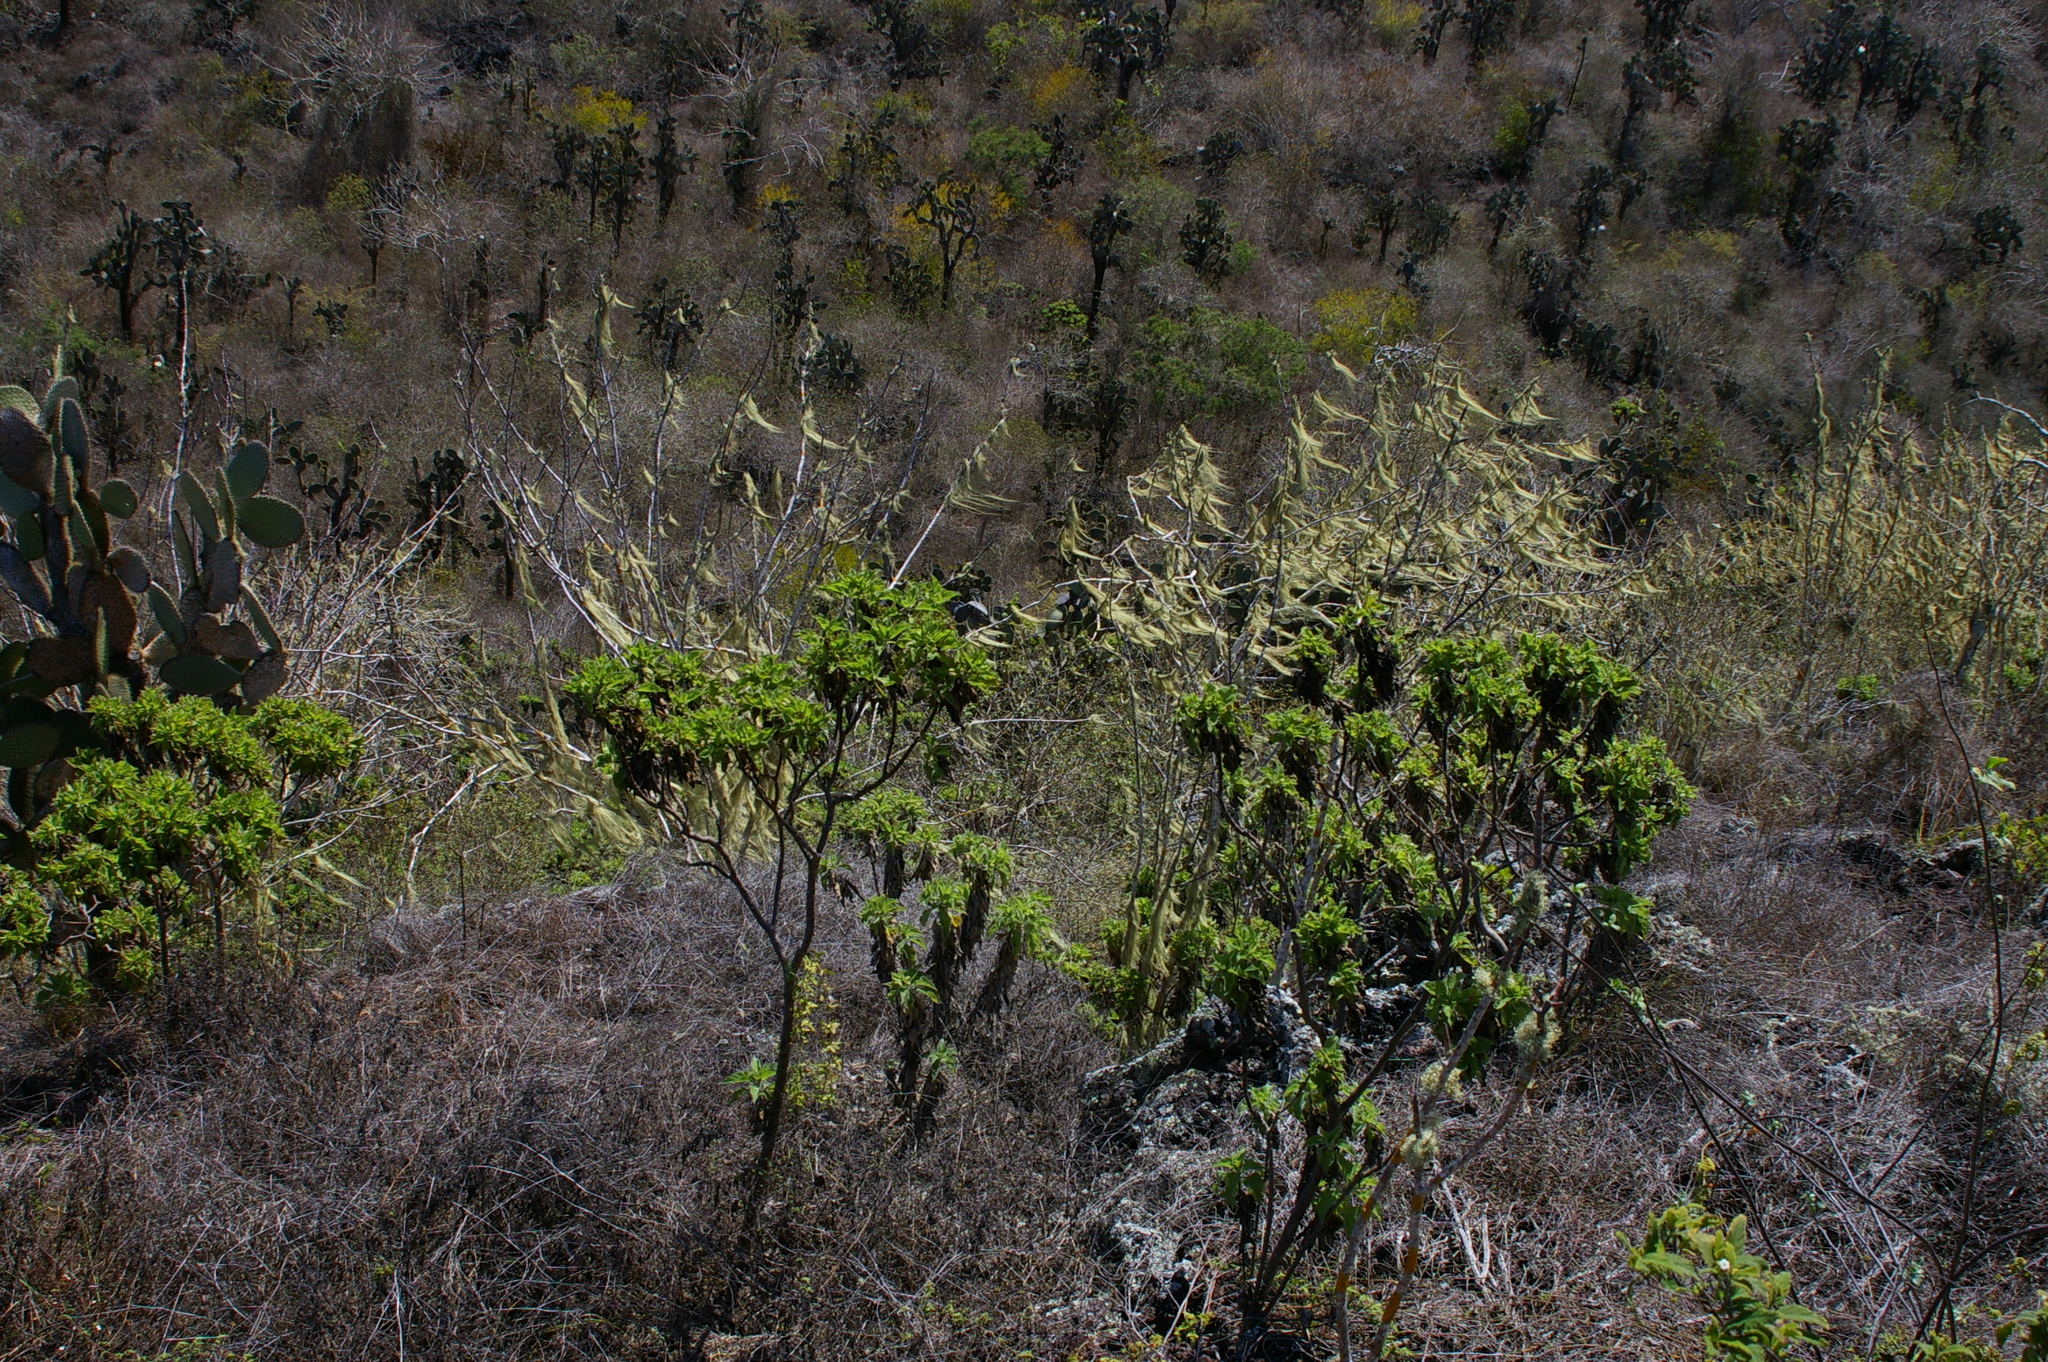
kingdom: Plantae
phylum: Tracheophyta
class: Magnoliopsida
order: Asterales
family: Asteraceae
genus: Scalesia
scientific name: Scalesia affinis
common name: Radiate-headed scalesia
